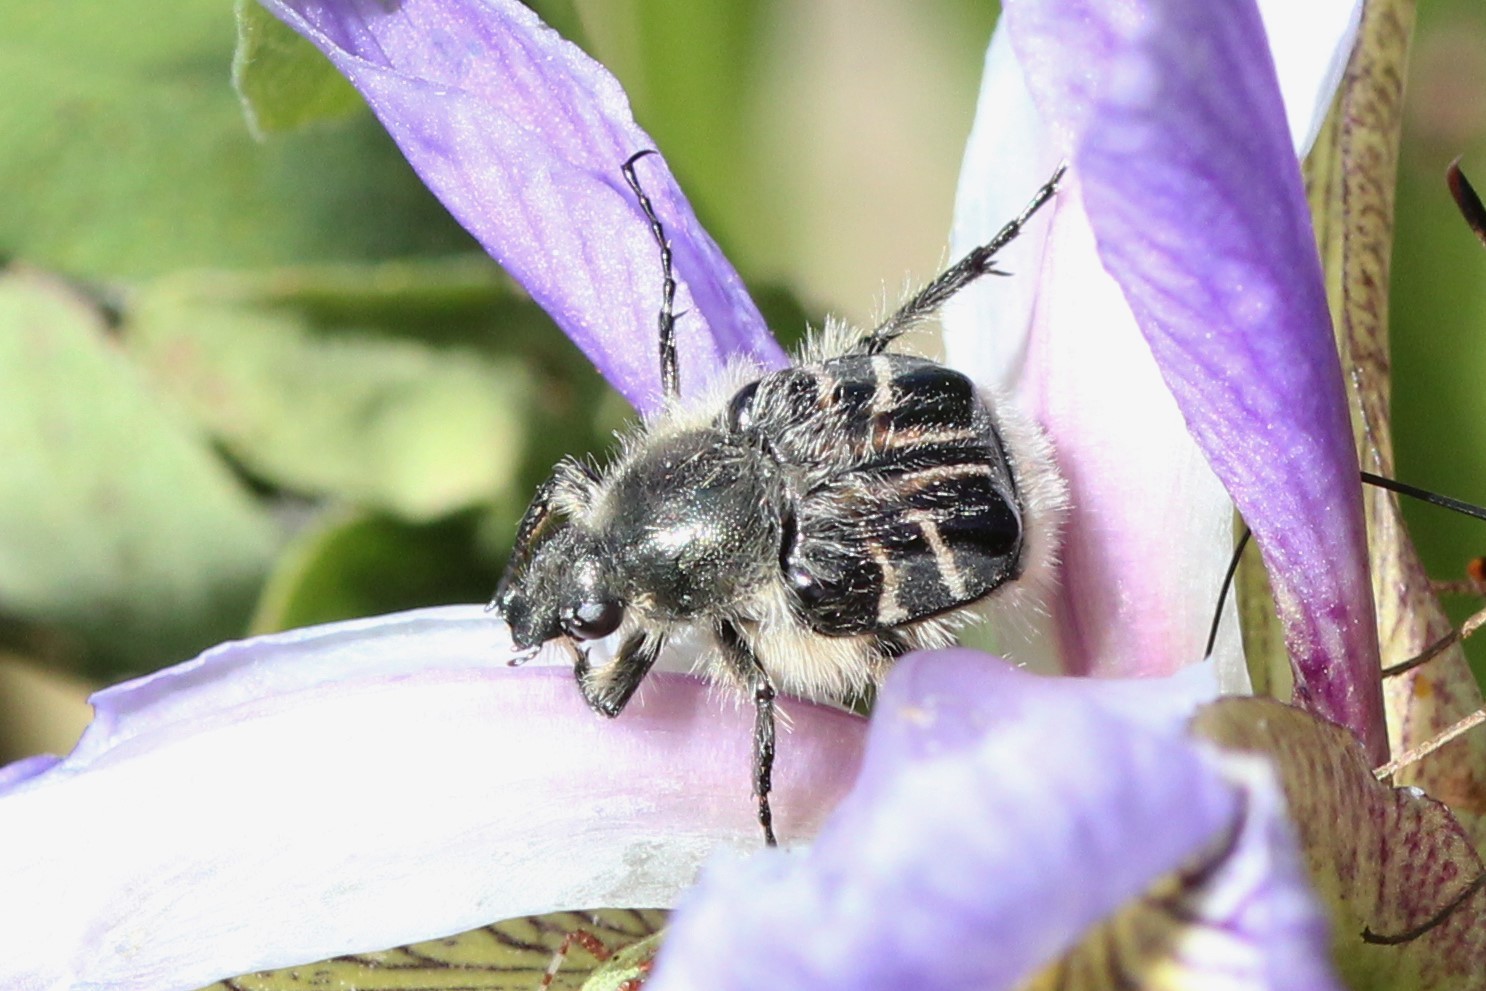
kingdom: Animalia
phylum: Arthropoda
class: Insecta
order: Coleoptera
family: Scarabaeidae
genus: Trichiotinus
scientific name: Trichiotinus assimilis
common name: Bee-mimic beetle
